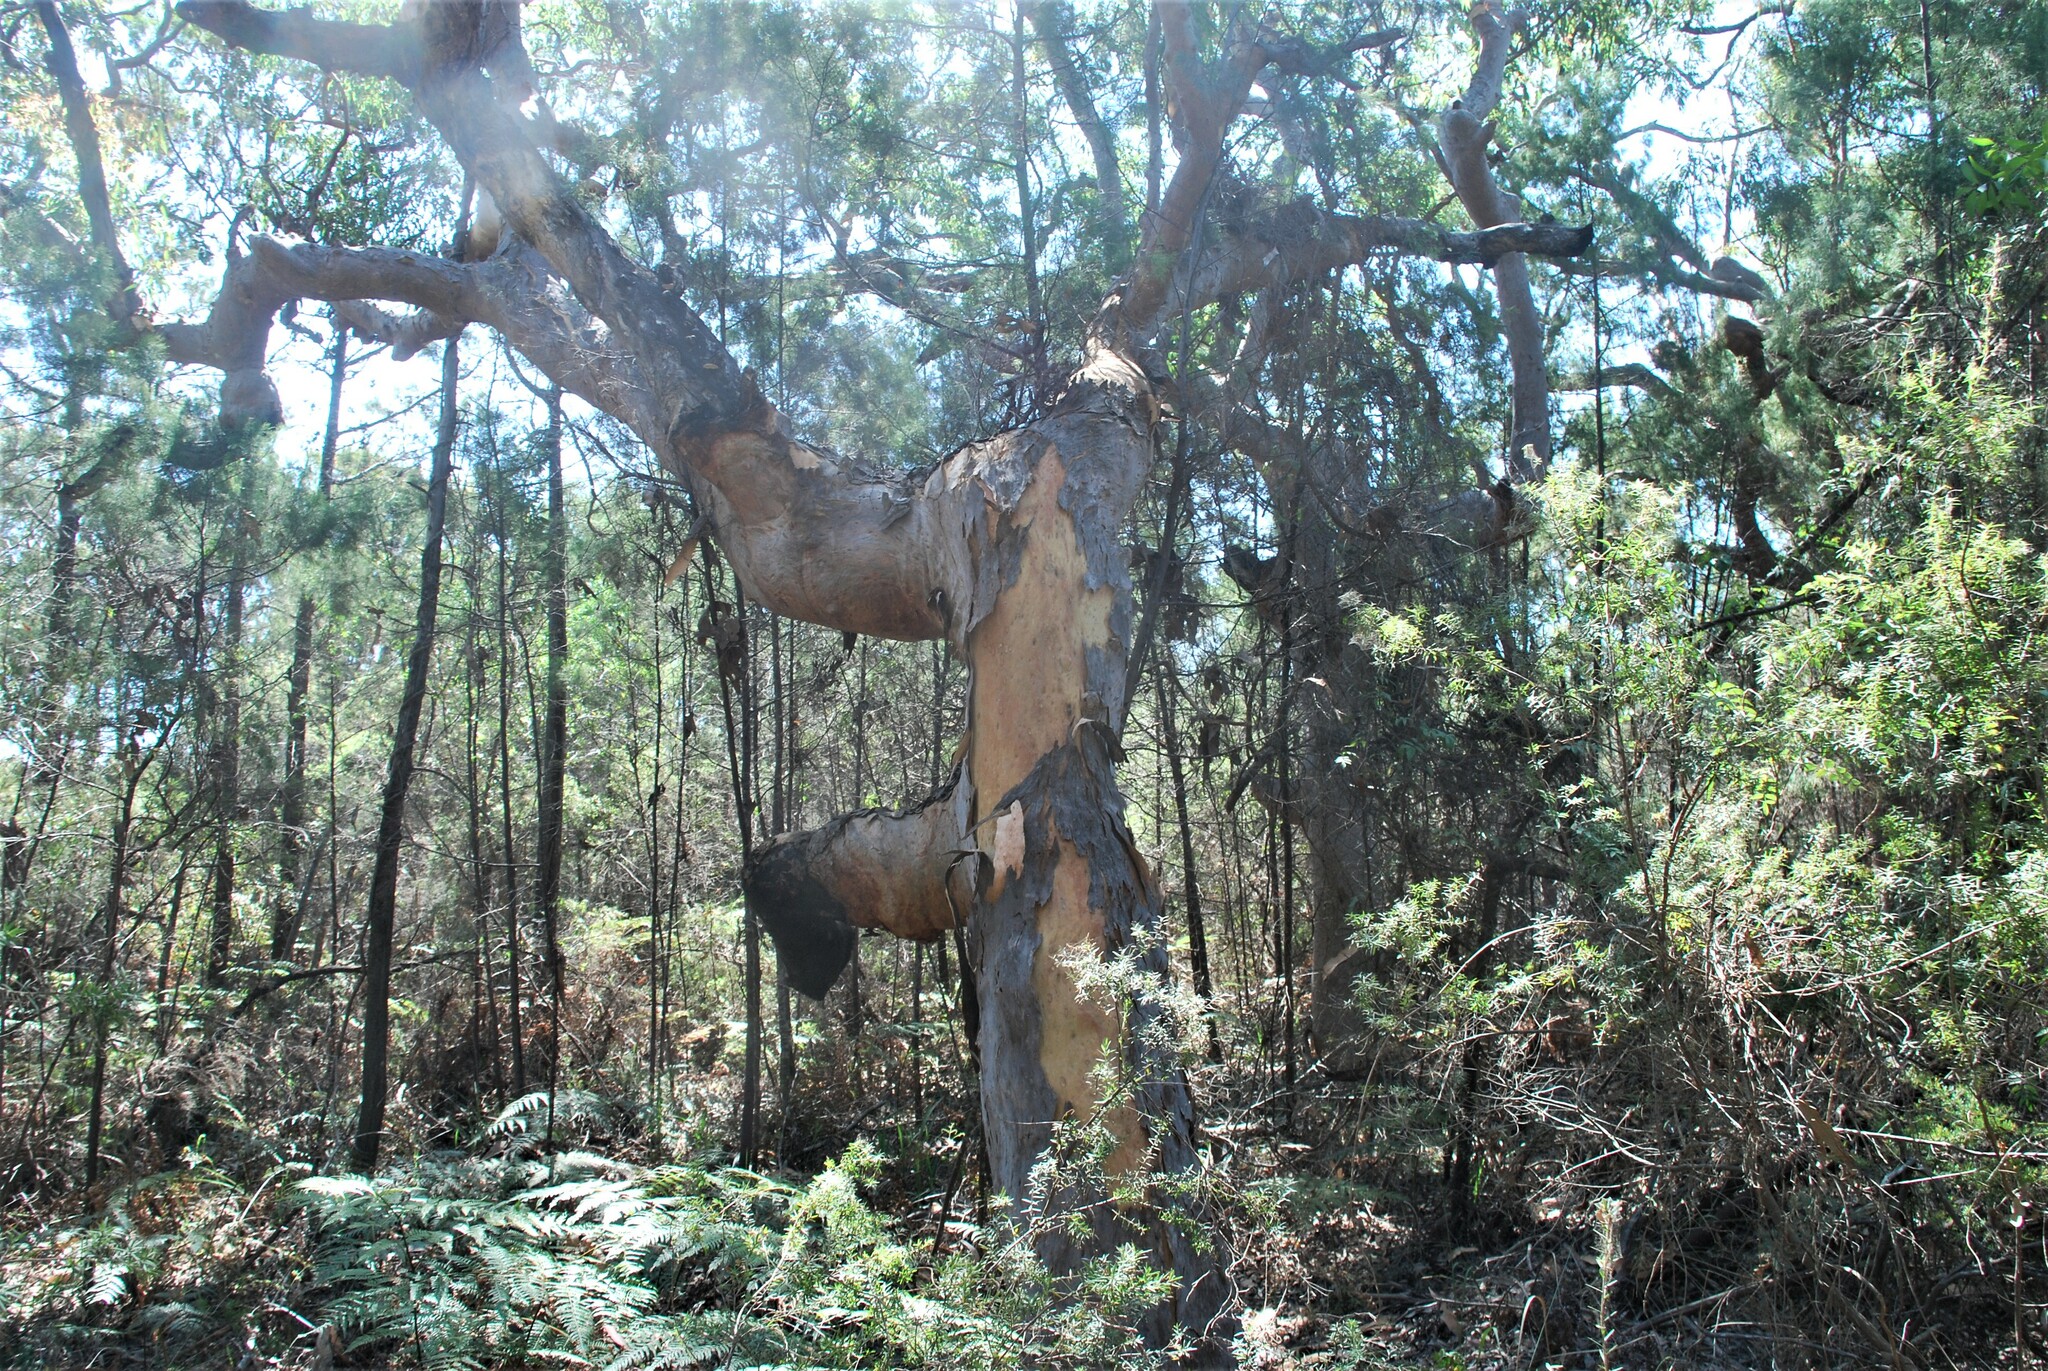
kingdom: Plantae
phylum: Tracheophyta
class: Magnoliopsida
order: Myrtales
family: Myrtaceae
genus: Angophora
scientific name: Angophora costata
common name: Gum myrtle
